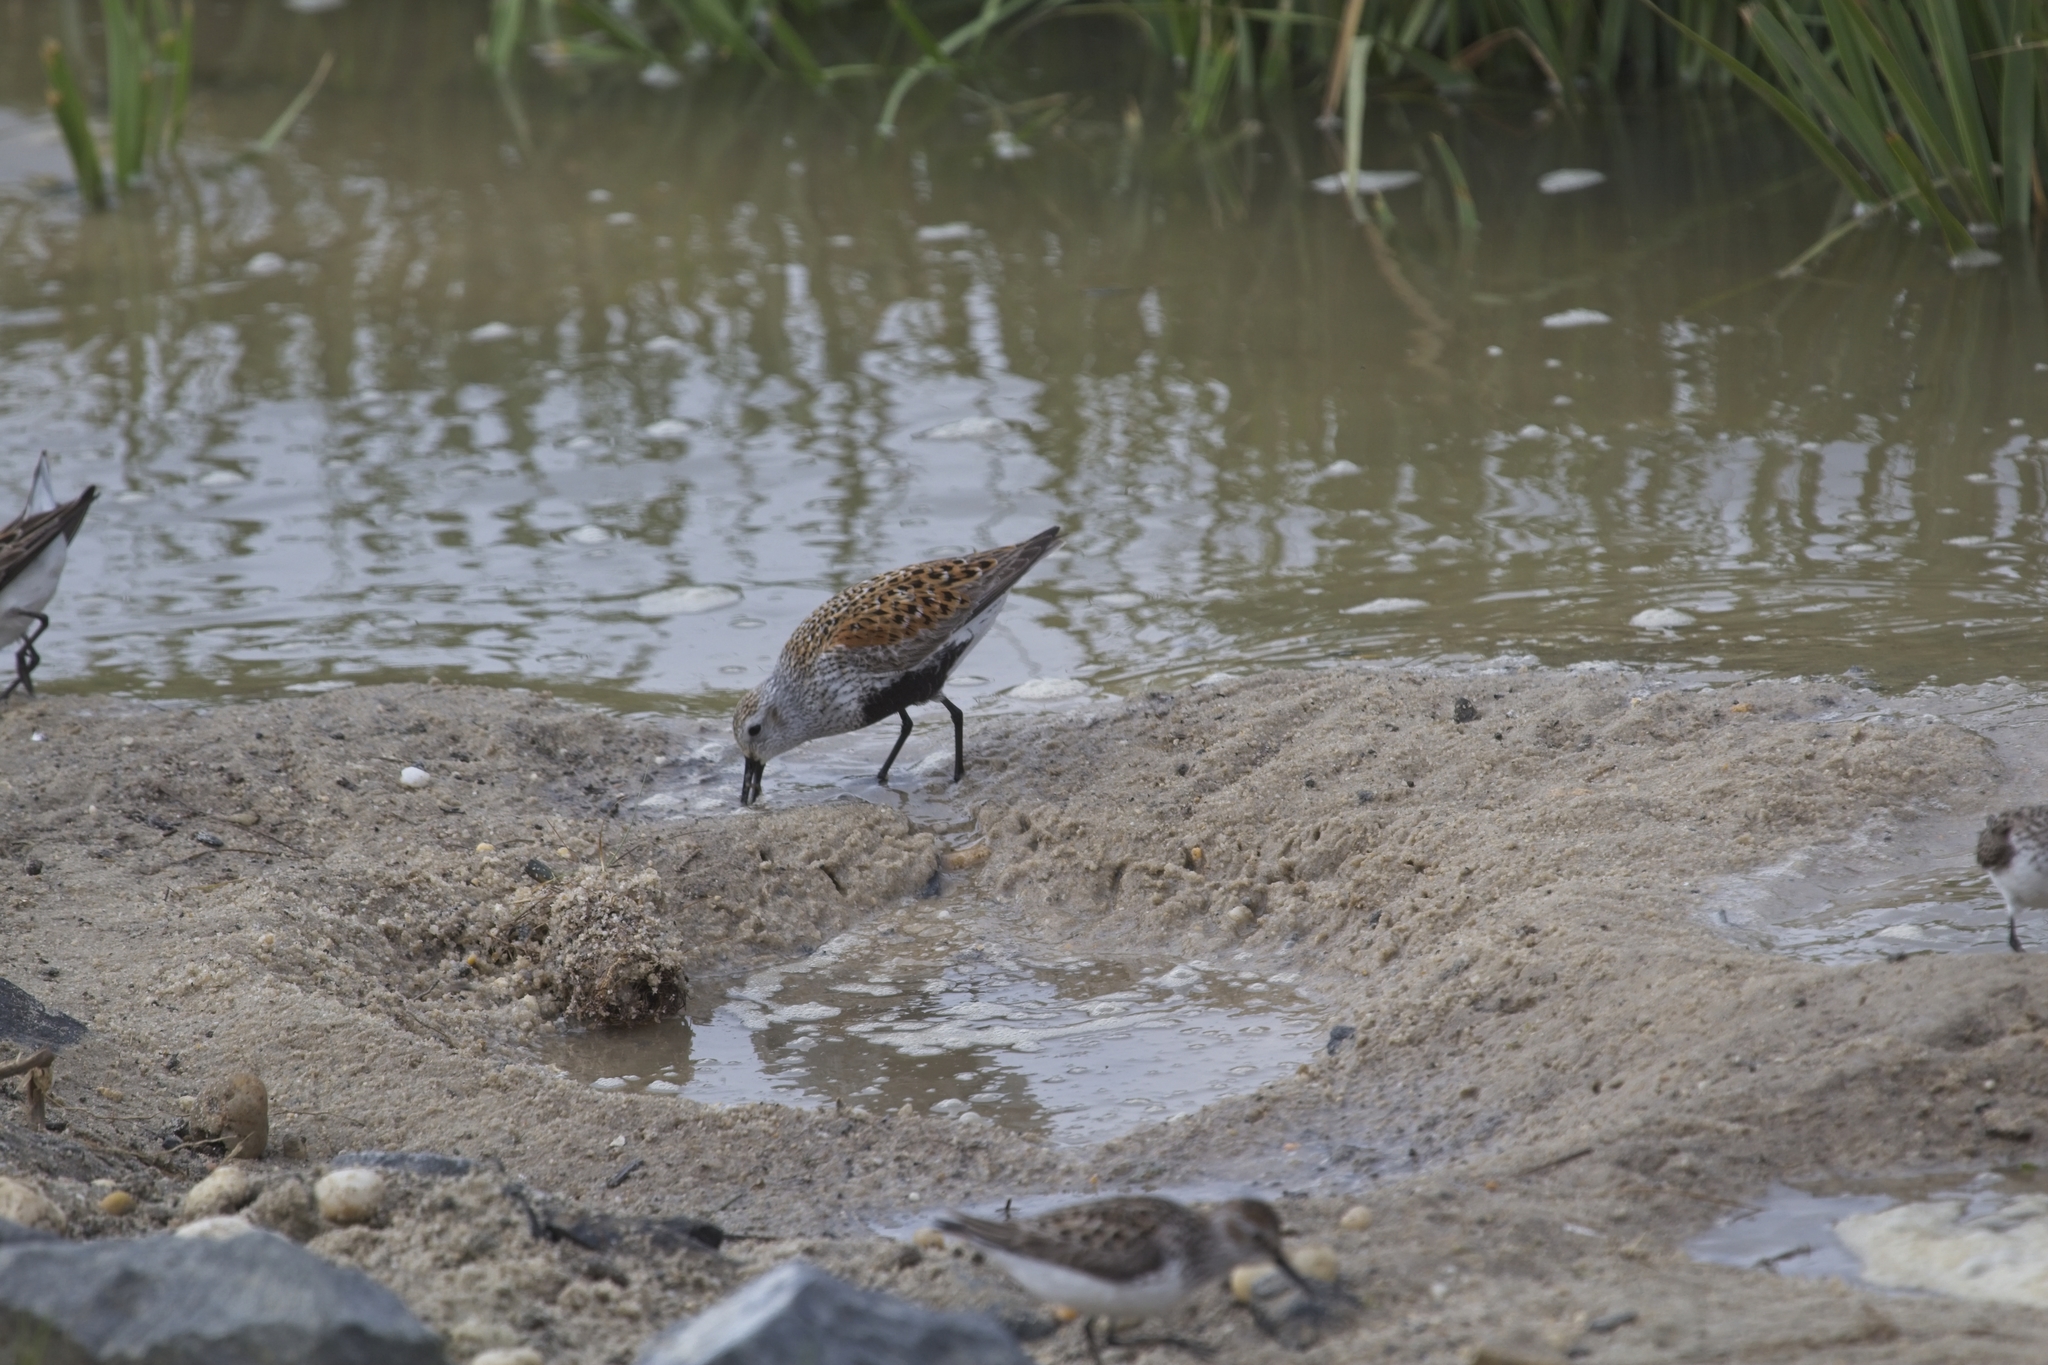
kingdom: Animalia
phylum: Chordata
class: Aves
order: Charadriiformes
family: Scolopacidae
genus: Calidris
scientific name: Calidris alpina
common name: Dunlin
